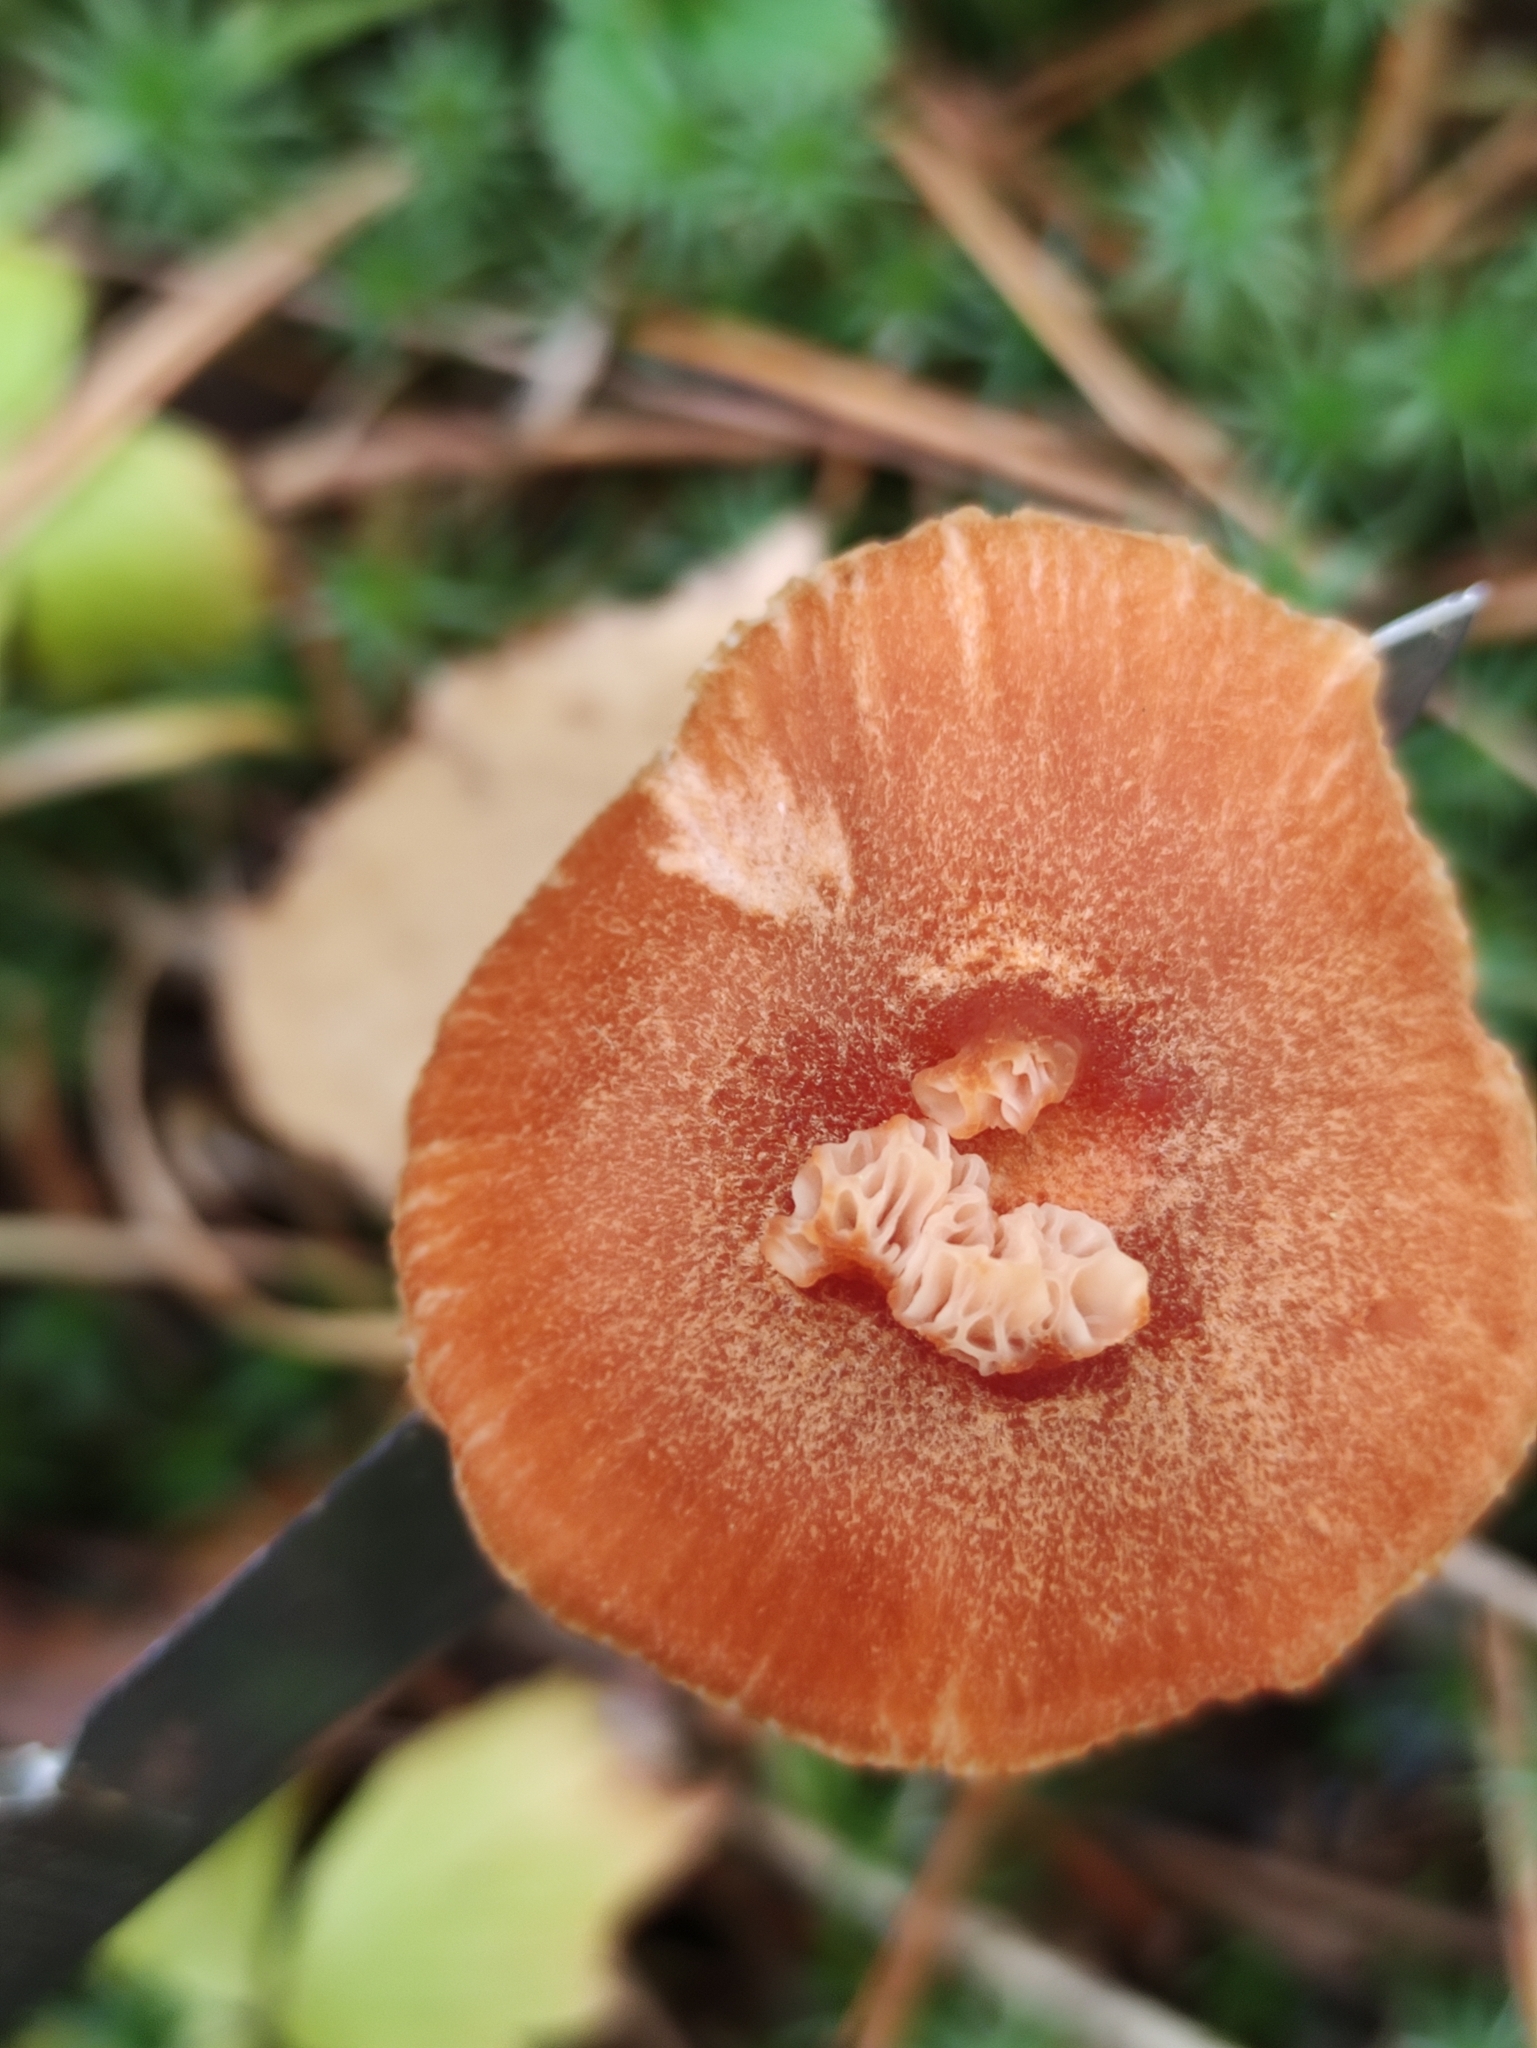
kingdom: Fungi
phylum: Basidiomycota
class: Agaricomycetes
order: Agaricales
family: Hydnangiaceae
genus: Laccaria
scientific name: Laccaria proxima
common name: Scurfy deceiver
